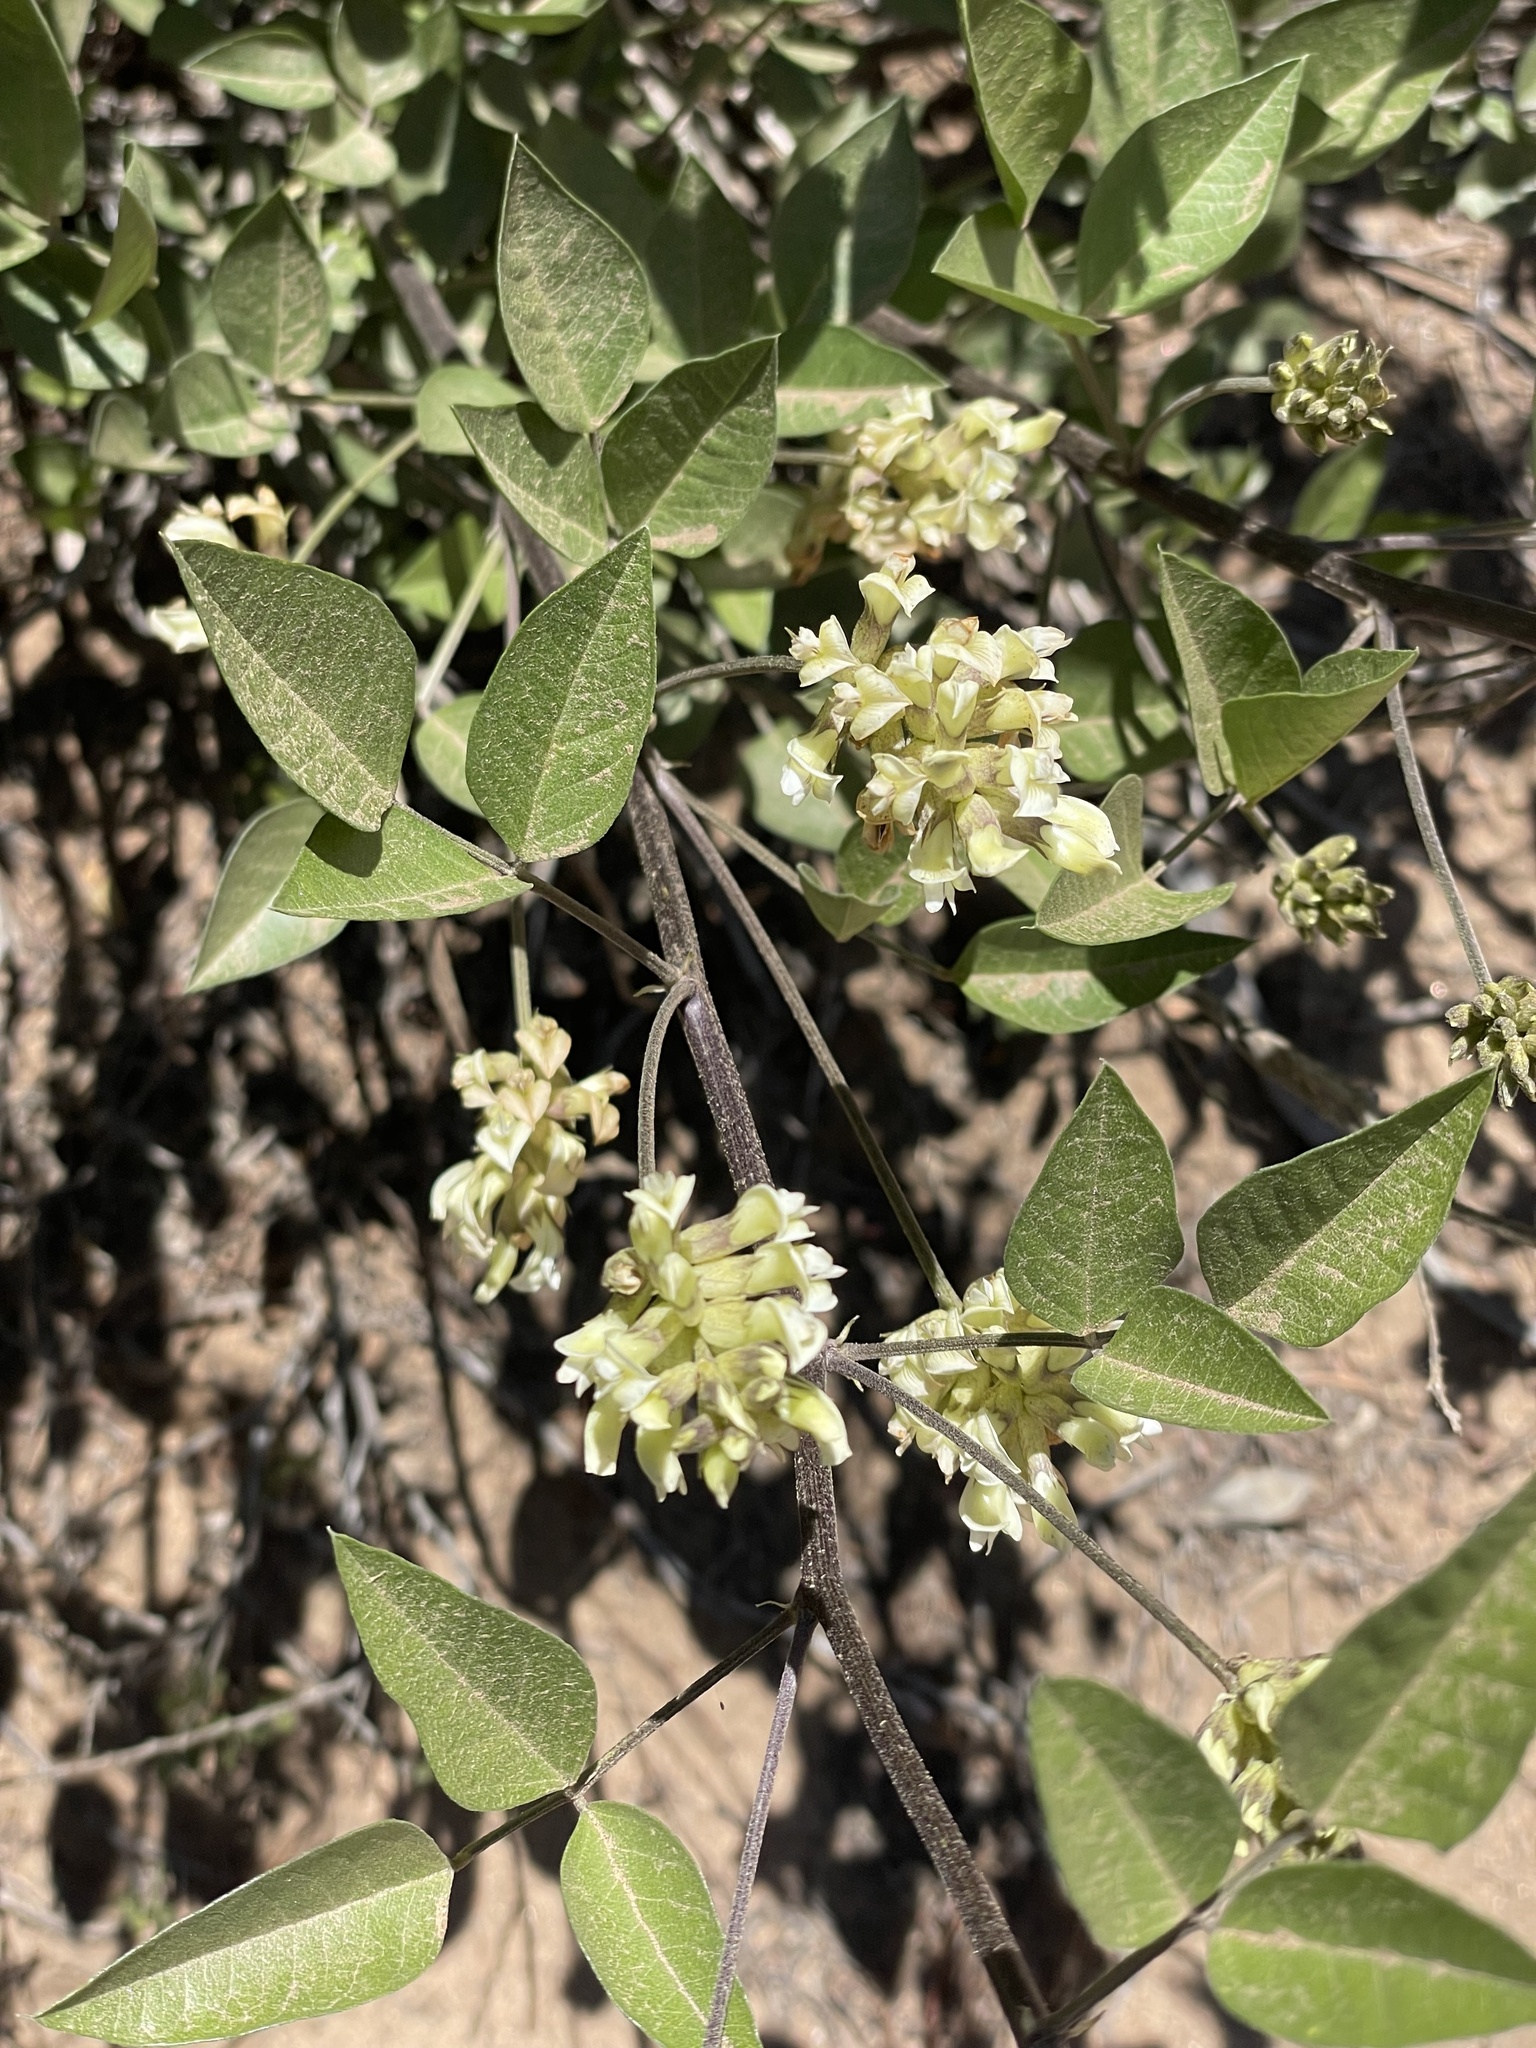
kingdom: Plantae
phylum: Tracheophyta
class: Magnoliopsida
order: Fabales
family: Fabaceae
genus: Rupertia
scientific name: Rupertia physodes
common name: California-tea
